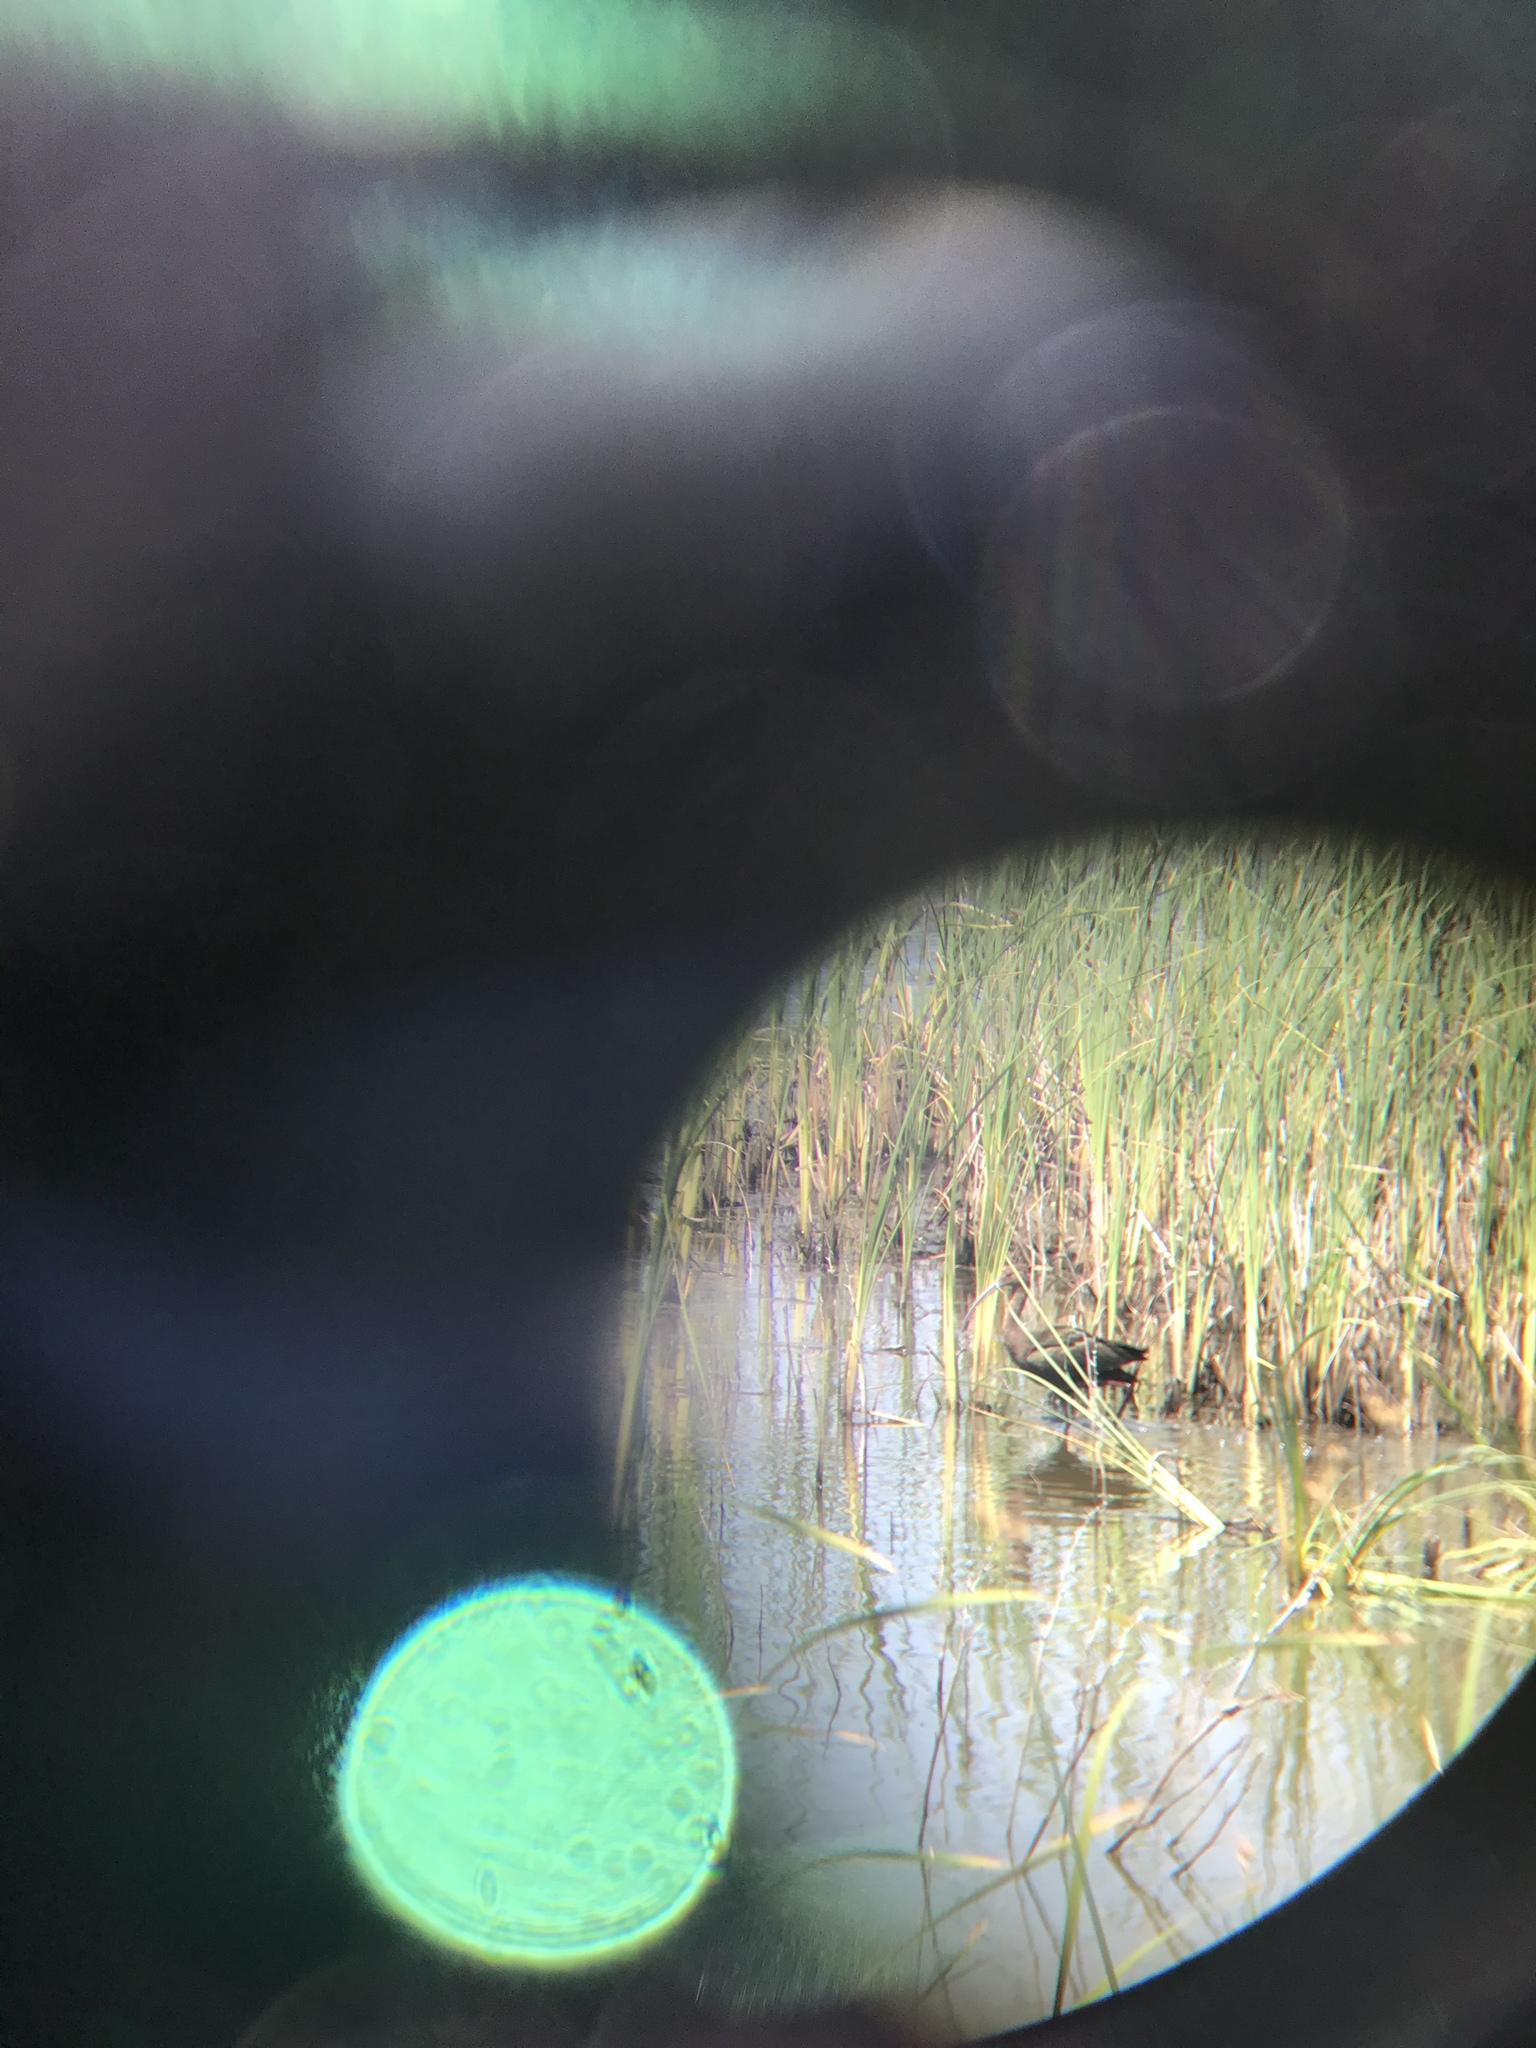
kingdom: Animalia
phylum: Chordata
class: Aves
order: Pelecaniformes
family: Threskiornithidae
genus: Plegadis
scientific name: Plegadis chihi
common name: White-faced ibis
